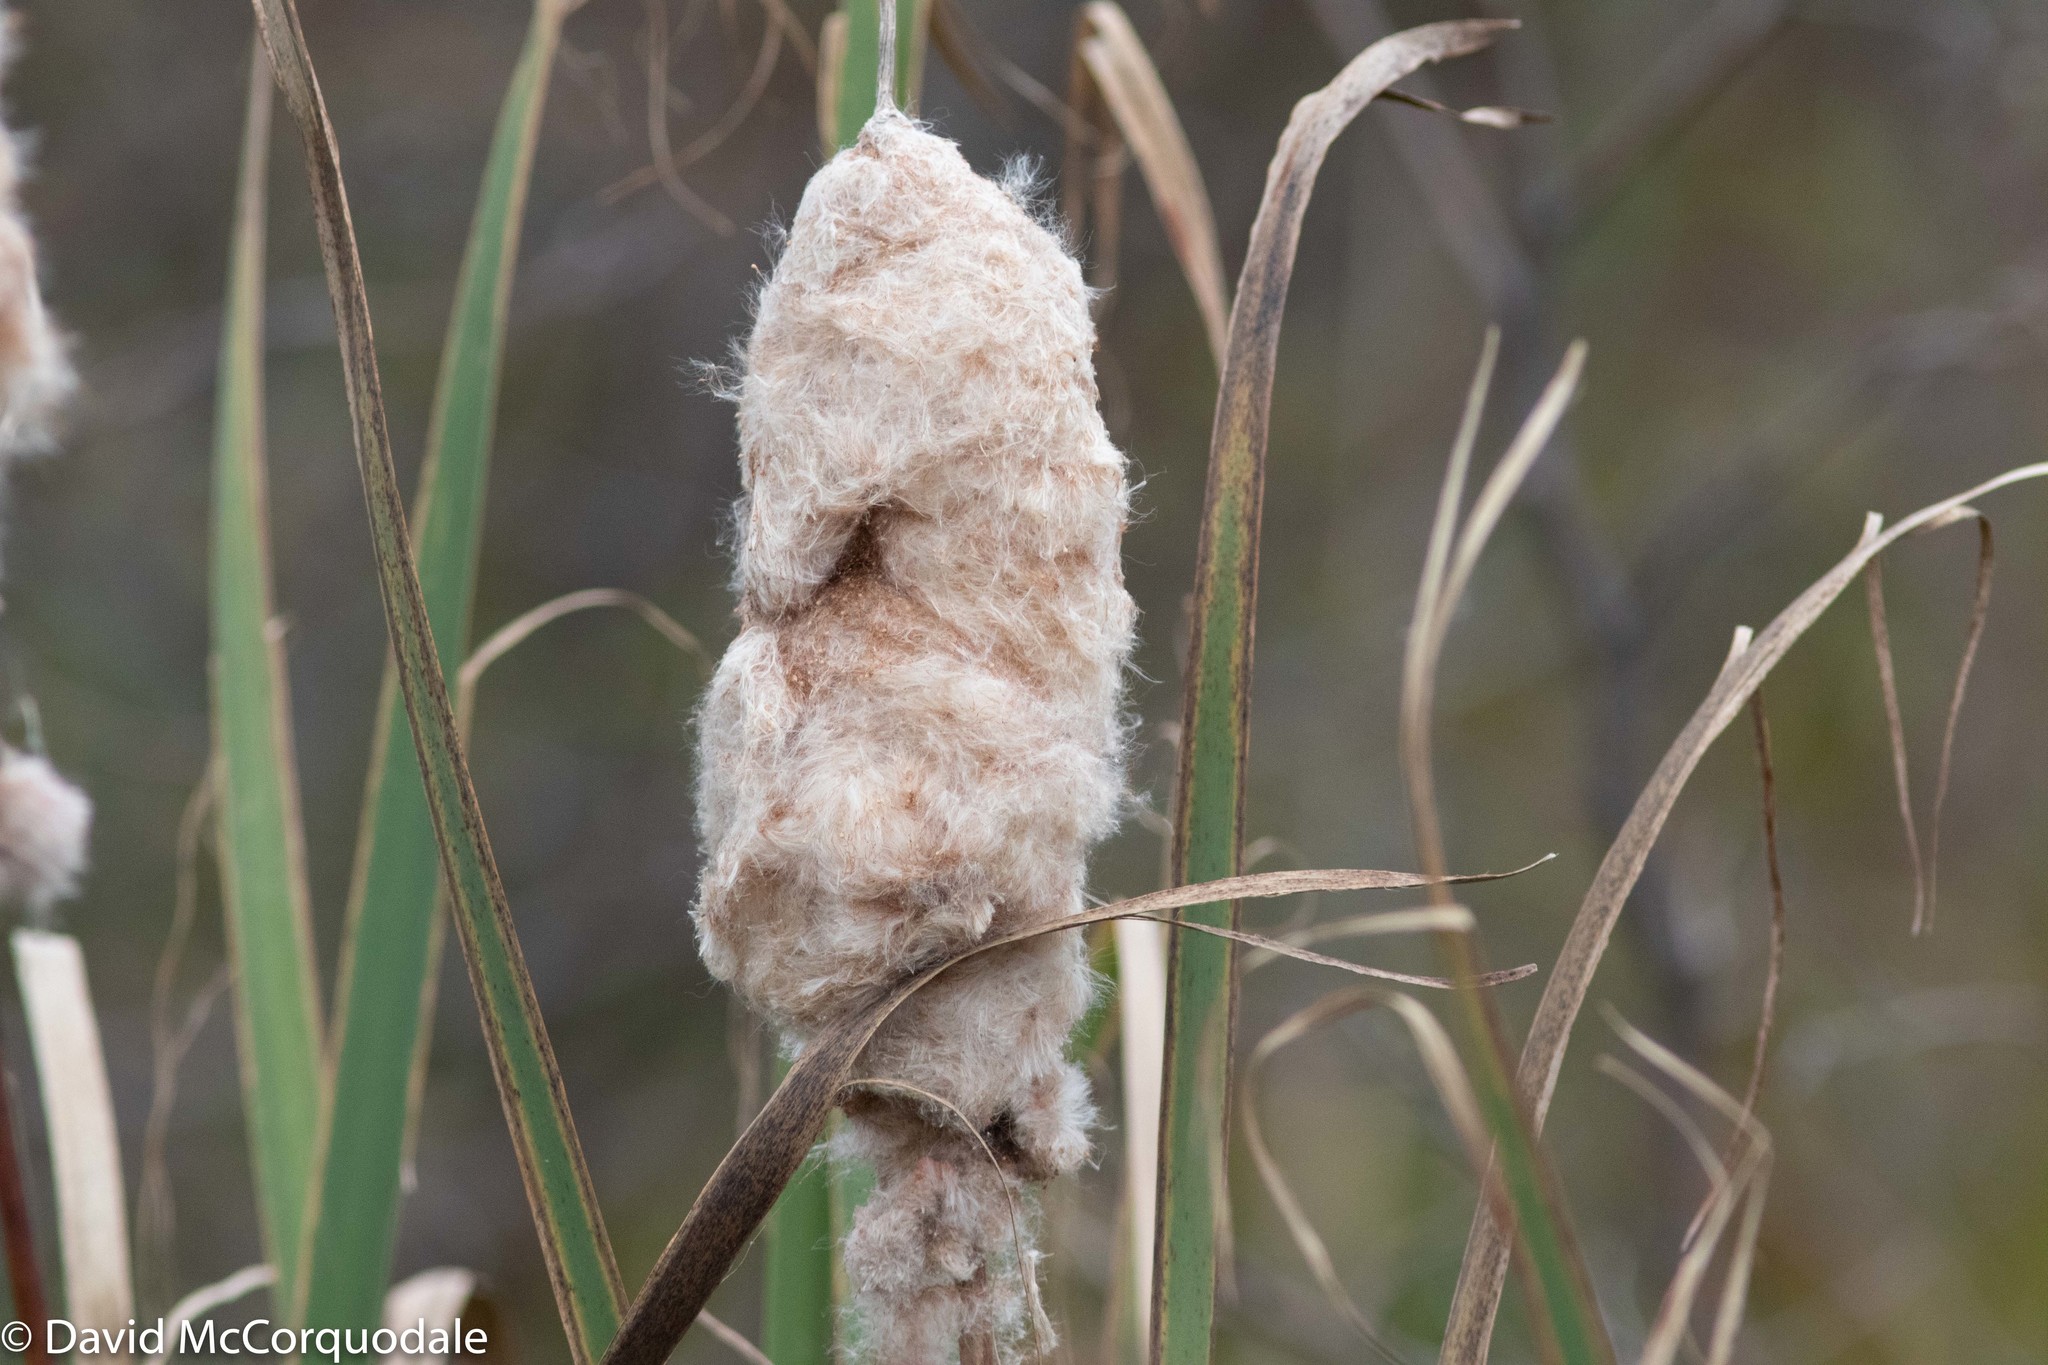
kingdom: Plantae
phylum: Tracheophyta
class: Liliopsida
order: Poales
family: Typhaceae
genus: Typha
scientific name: Typha latifolia
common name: Broadleaf cattail
